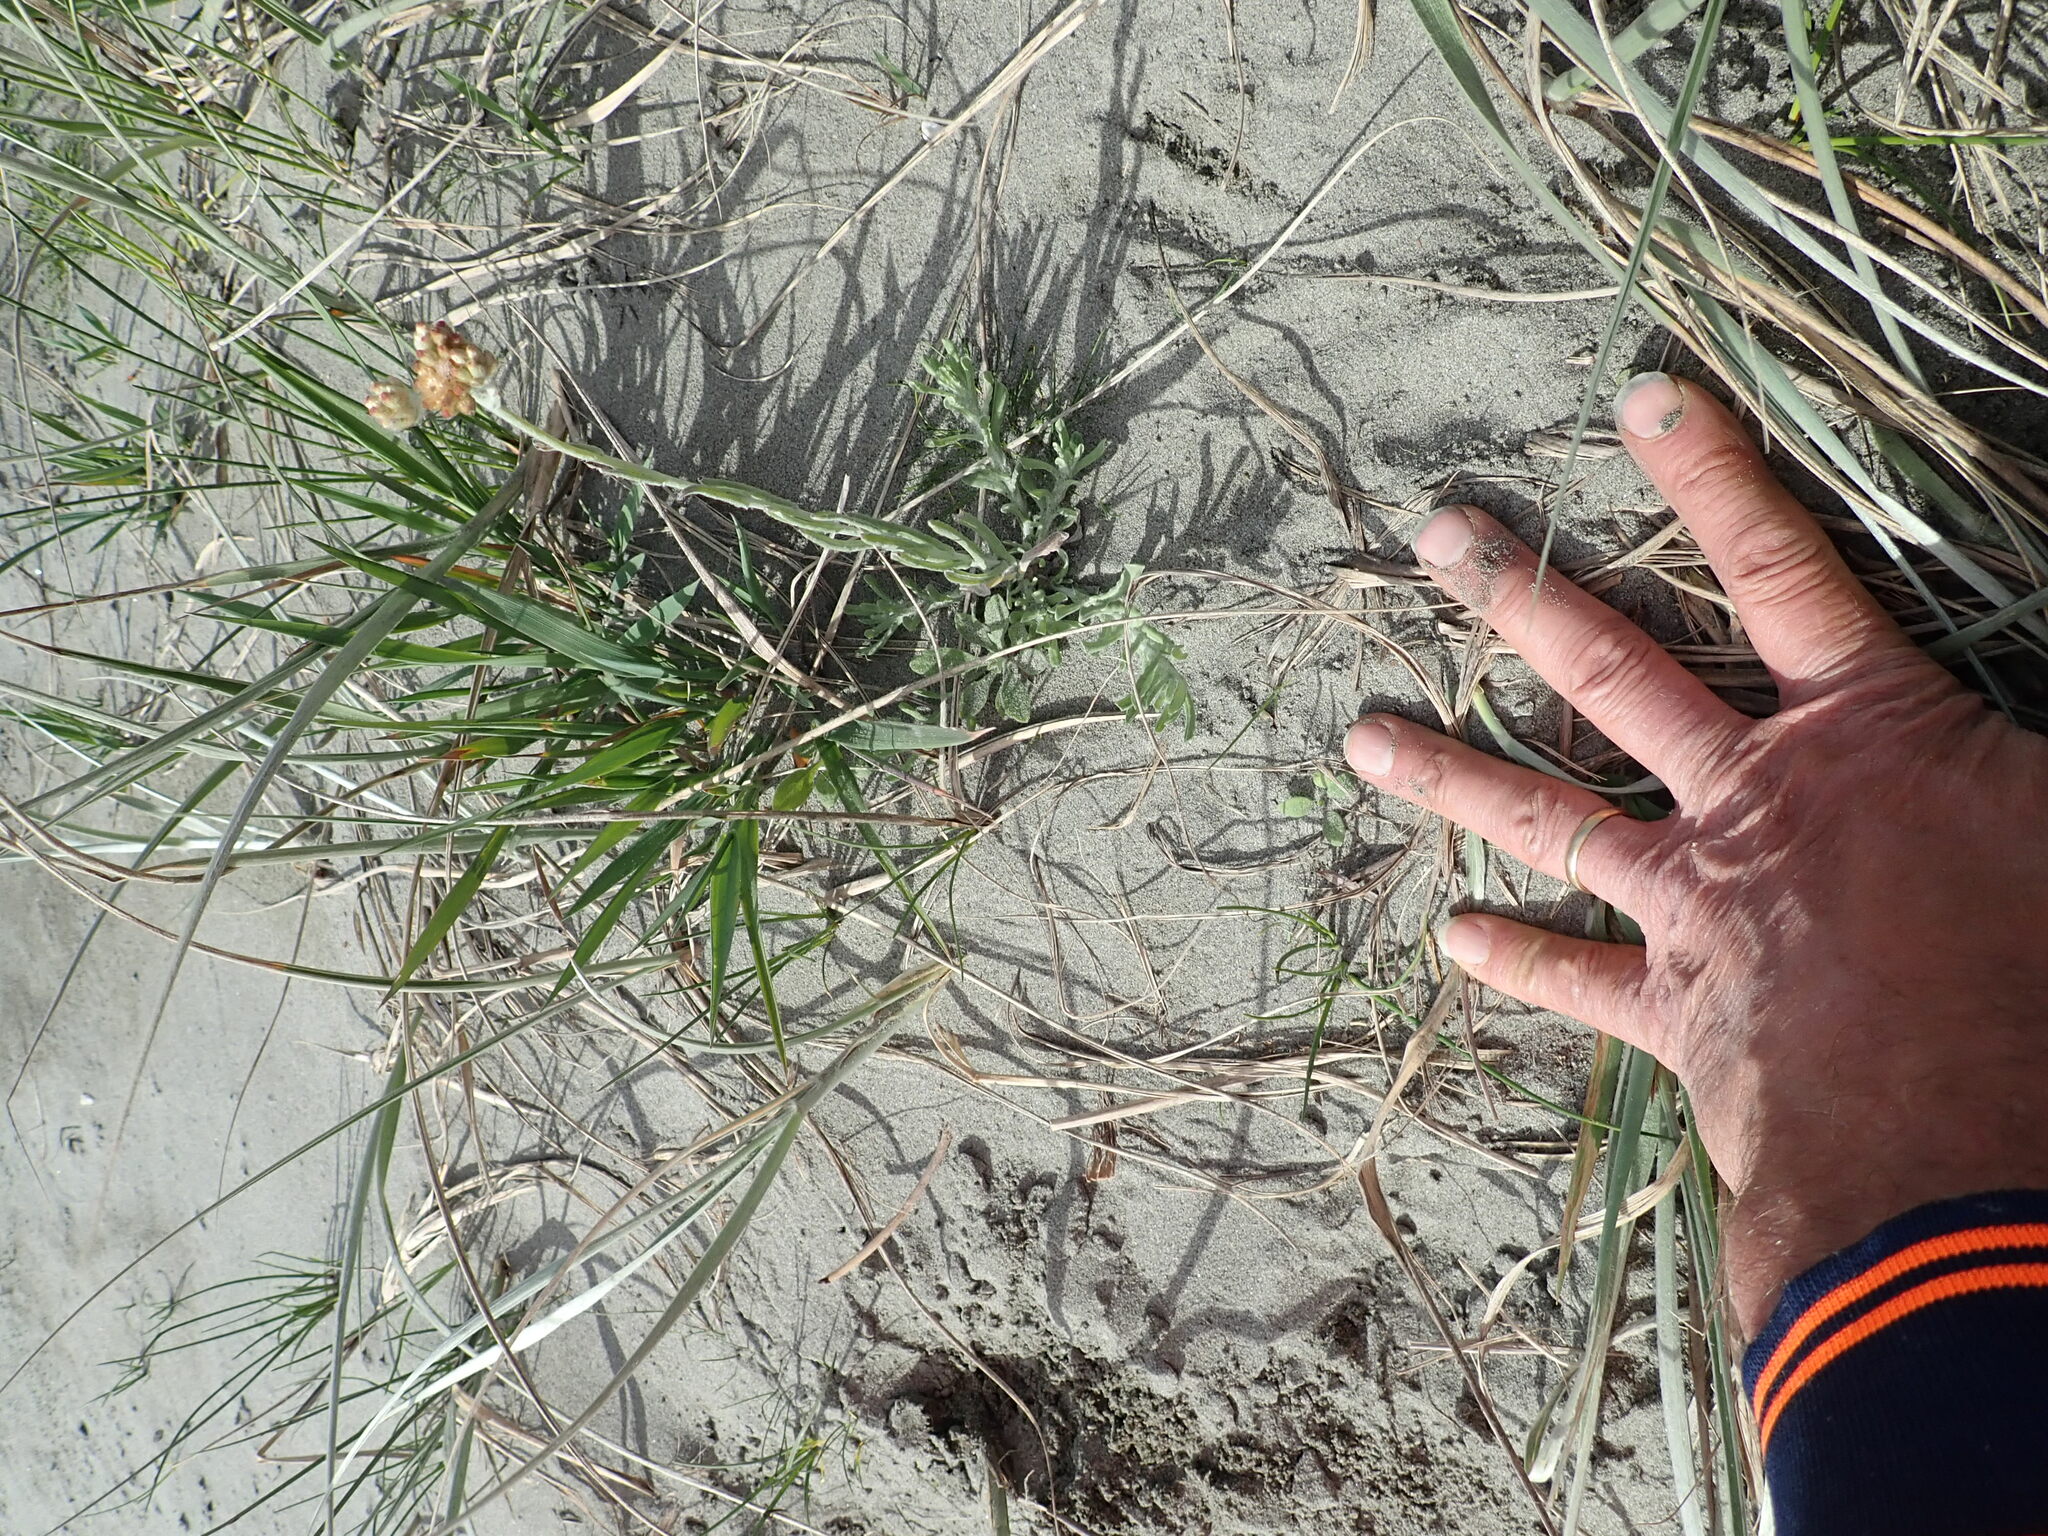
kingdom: Plantae
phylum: Tracheophyta
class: Magnoliopsida
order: Asterales
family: Asteraceae
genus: Helichrysum
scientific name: Helichrysum luteoalbum
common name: Daisy
